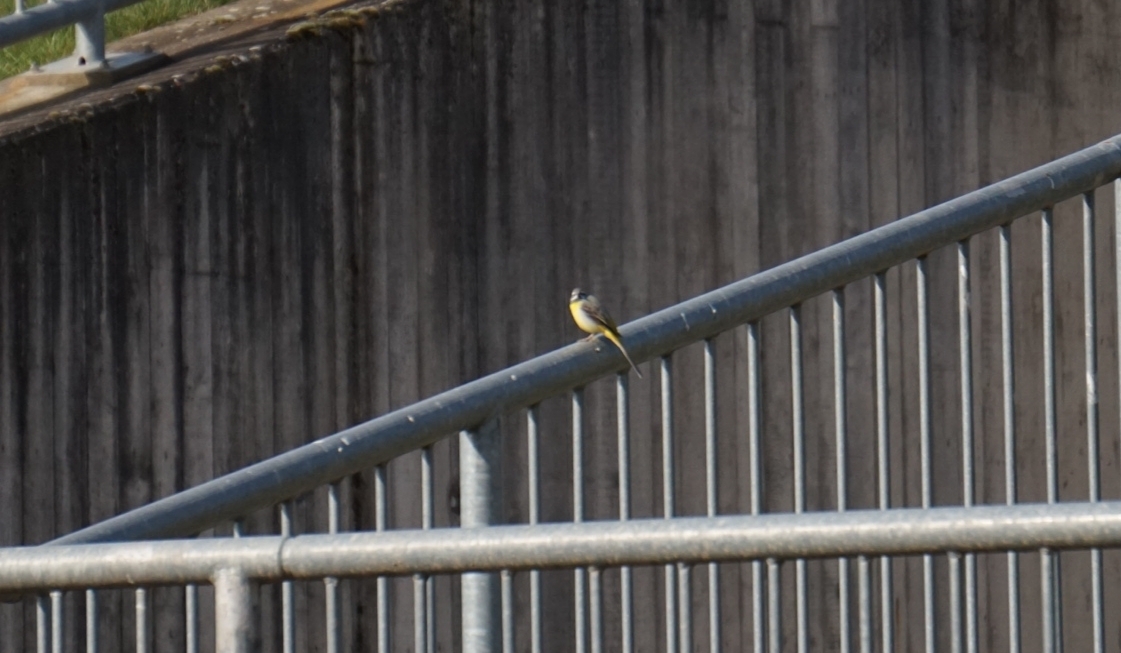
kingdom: Animalia
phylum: Chordata
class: Aves
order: Passeriformes
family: Motacillidae
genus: Motacilla
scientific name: Motacilla cinerea
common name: Grey wagtail
